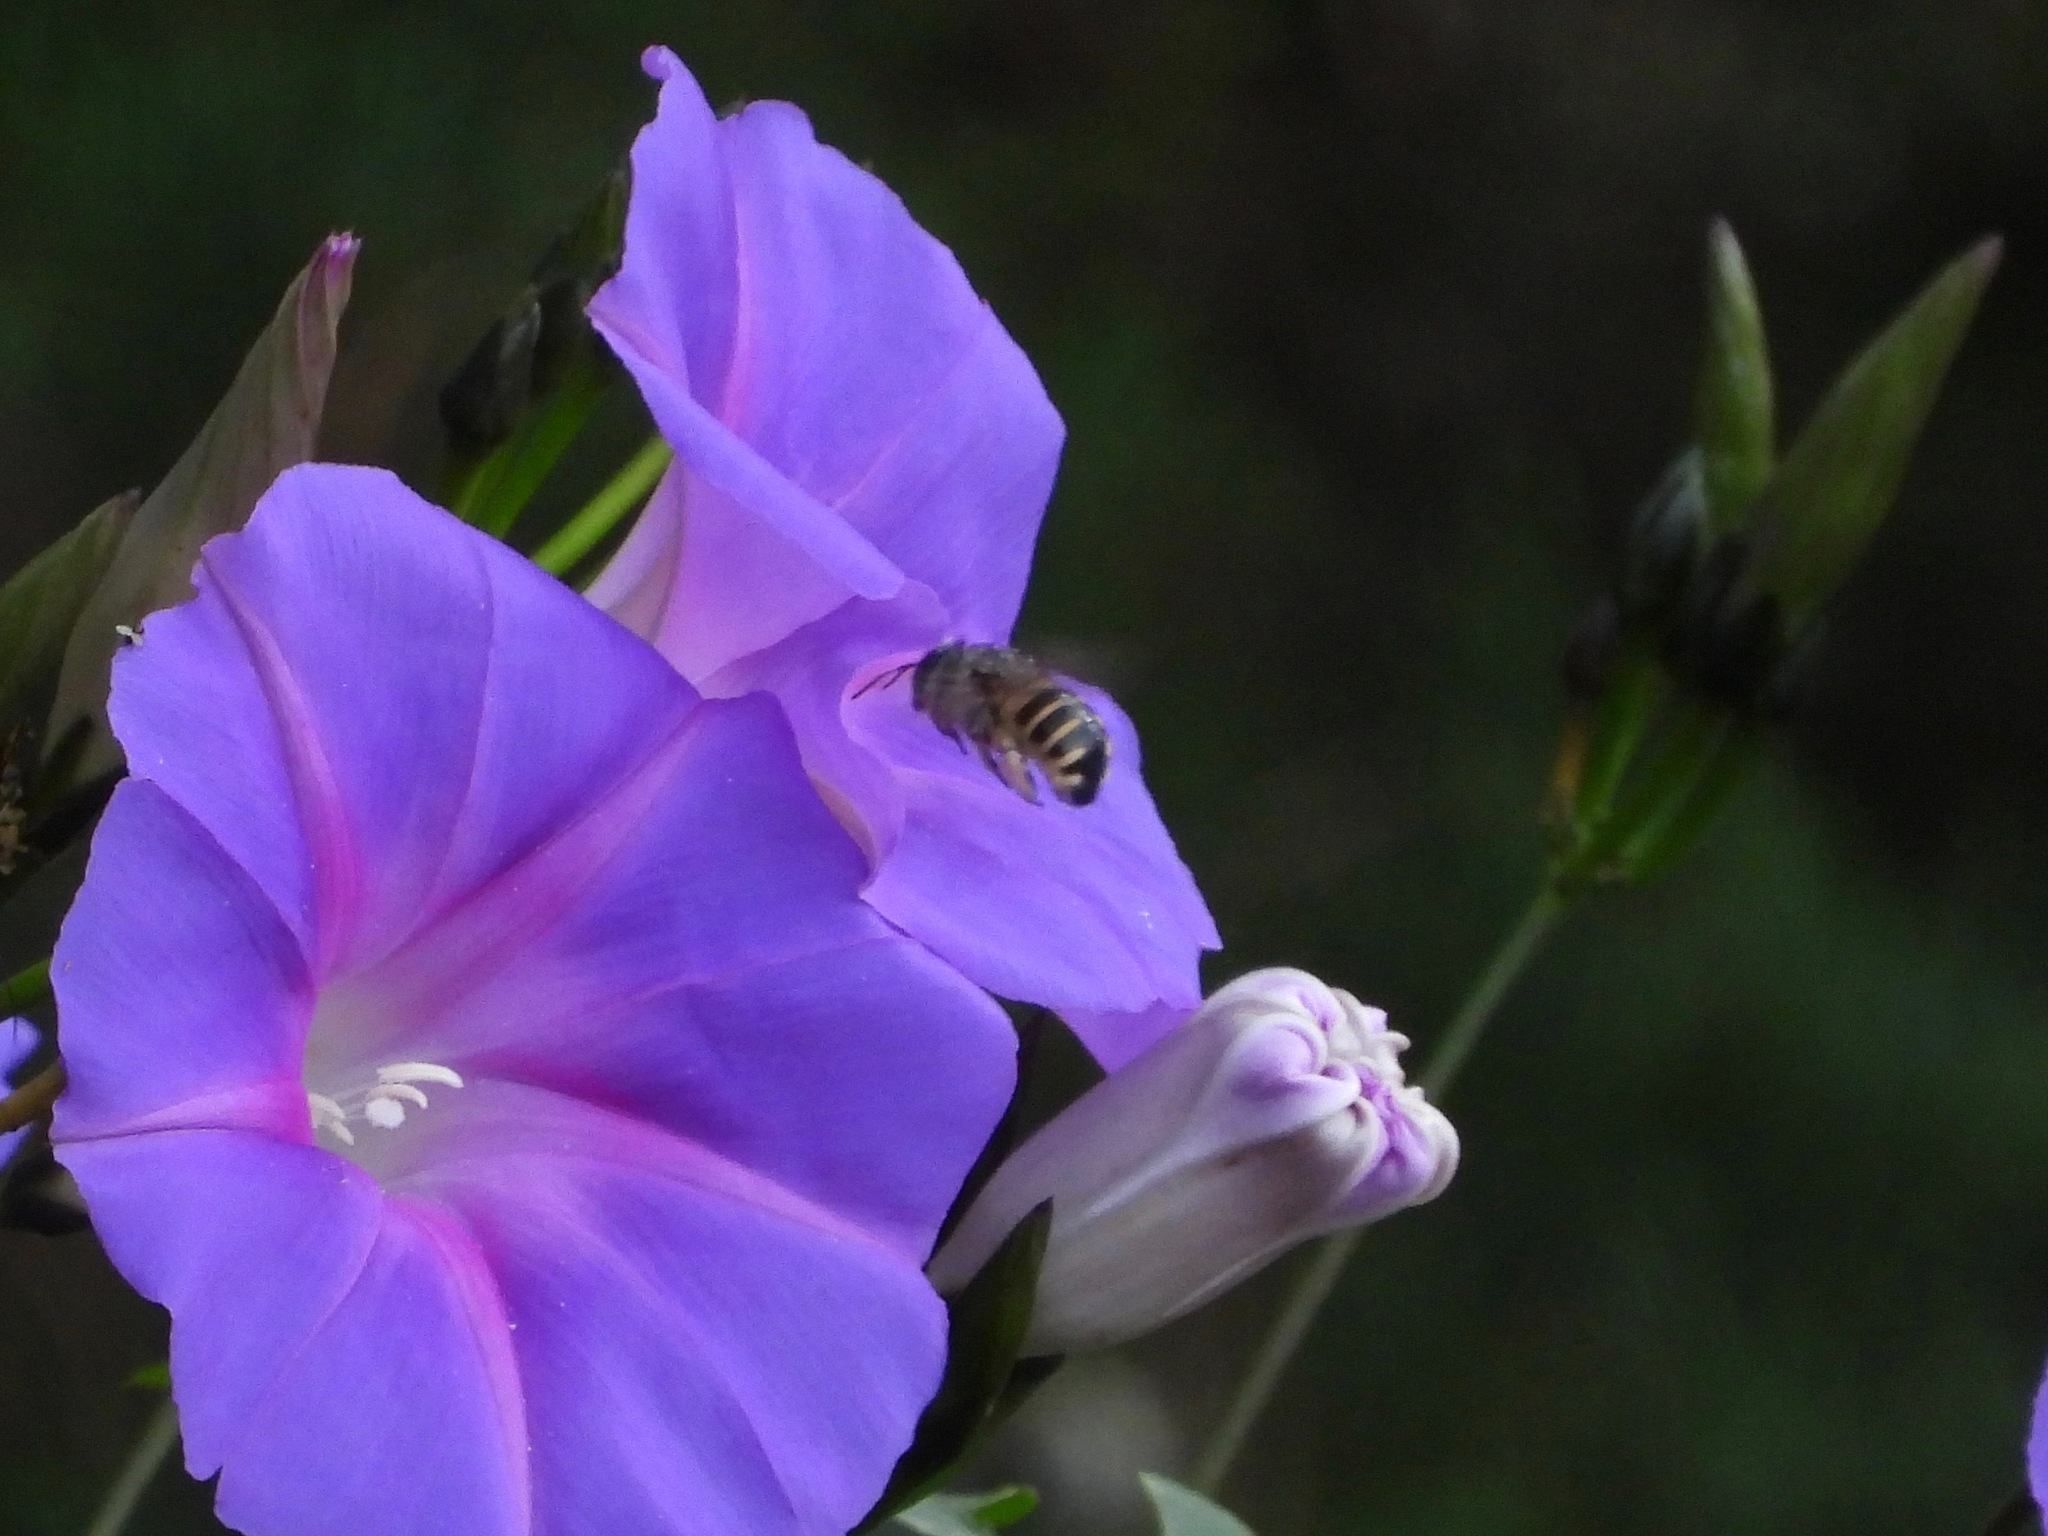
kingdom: Animalia
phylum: Arthropoda
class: Insecta
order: Hymenoptera
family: Apidae
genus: Xylocopa
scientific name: Xylocopa tabaniformis
